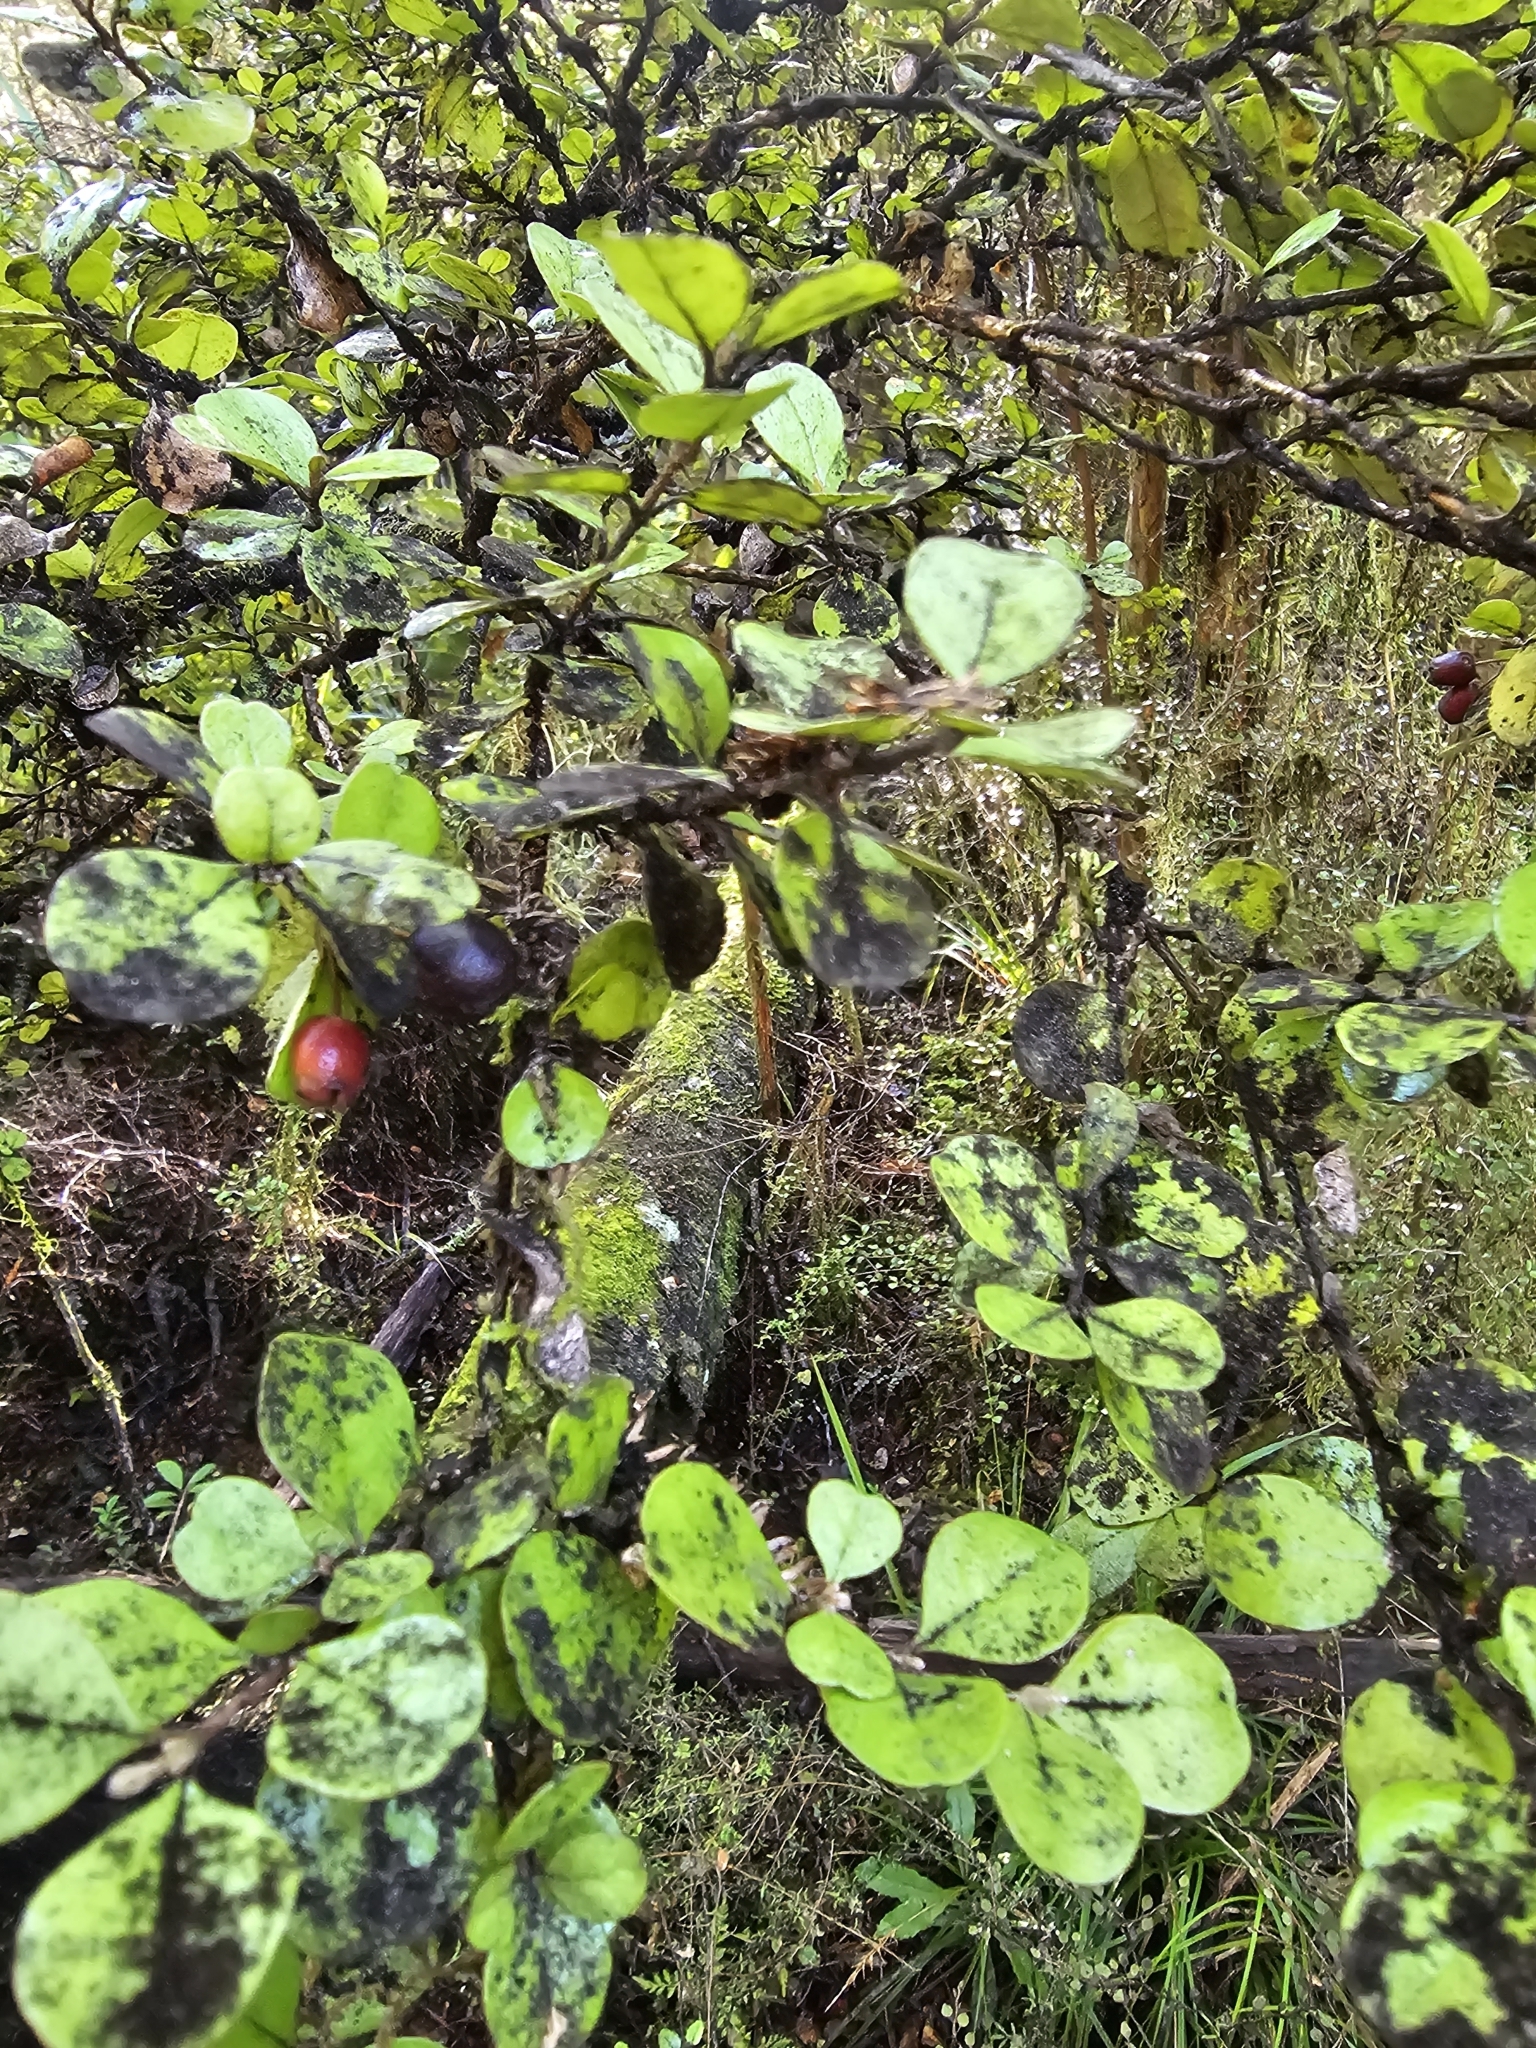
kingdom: Plantae
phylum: Tracheophyta
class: Magnoliopsida
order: Myrtales
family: Myrtaceae
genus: Lophomyrtus
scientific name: Lophomyrtus obcordata
